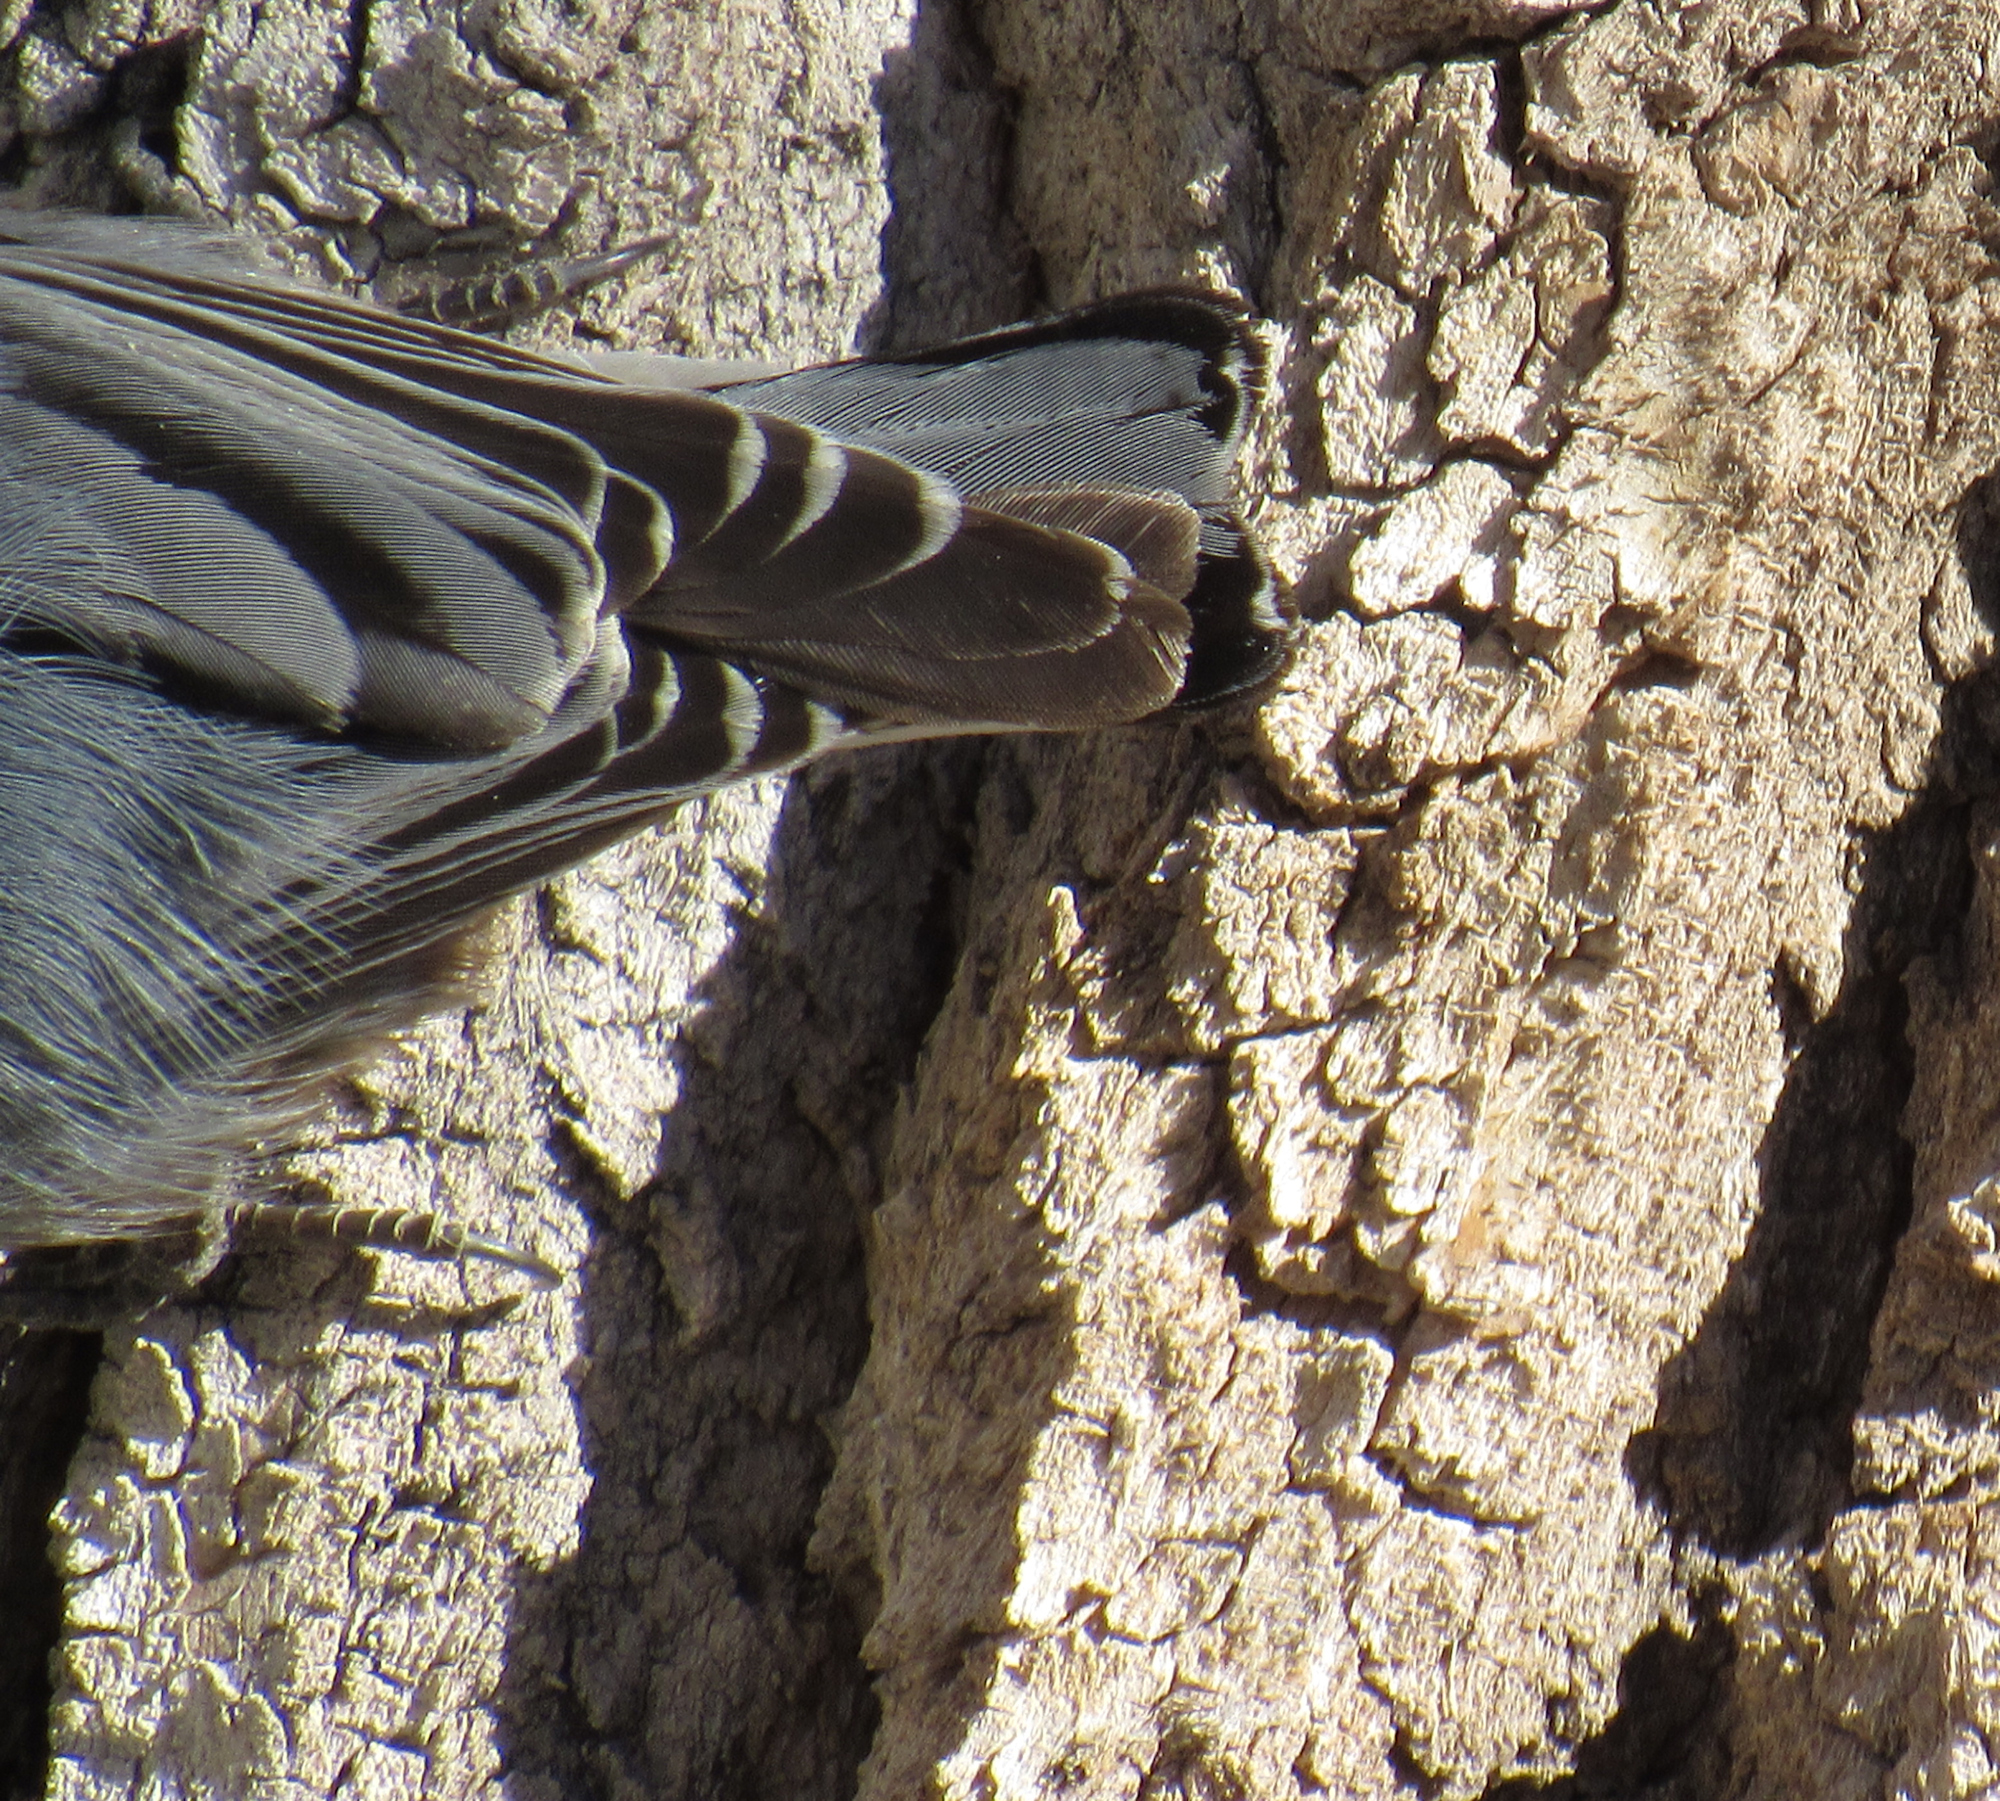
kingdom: Animalia
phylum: Chordata
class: Aves
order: Passeriformes
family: Sittidae
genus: Sitta
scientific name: Sitta carolinensis
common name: White-breasted nuthatch
